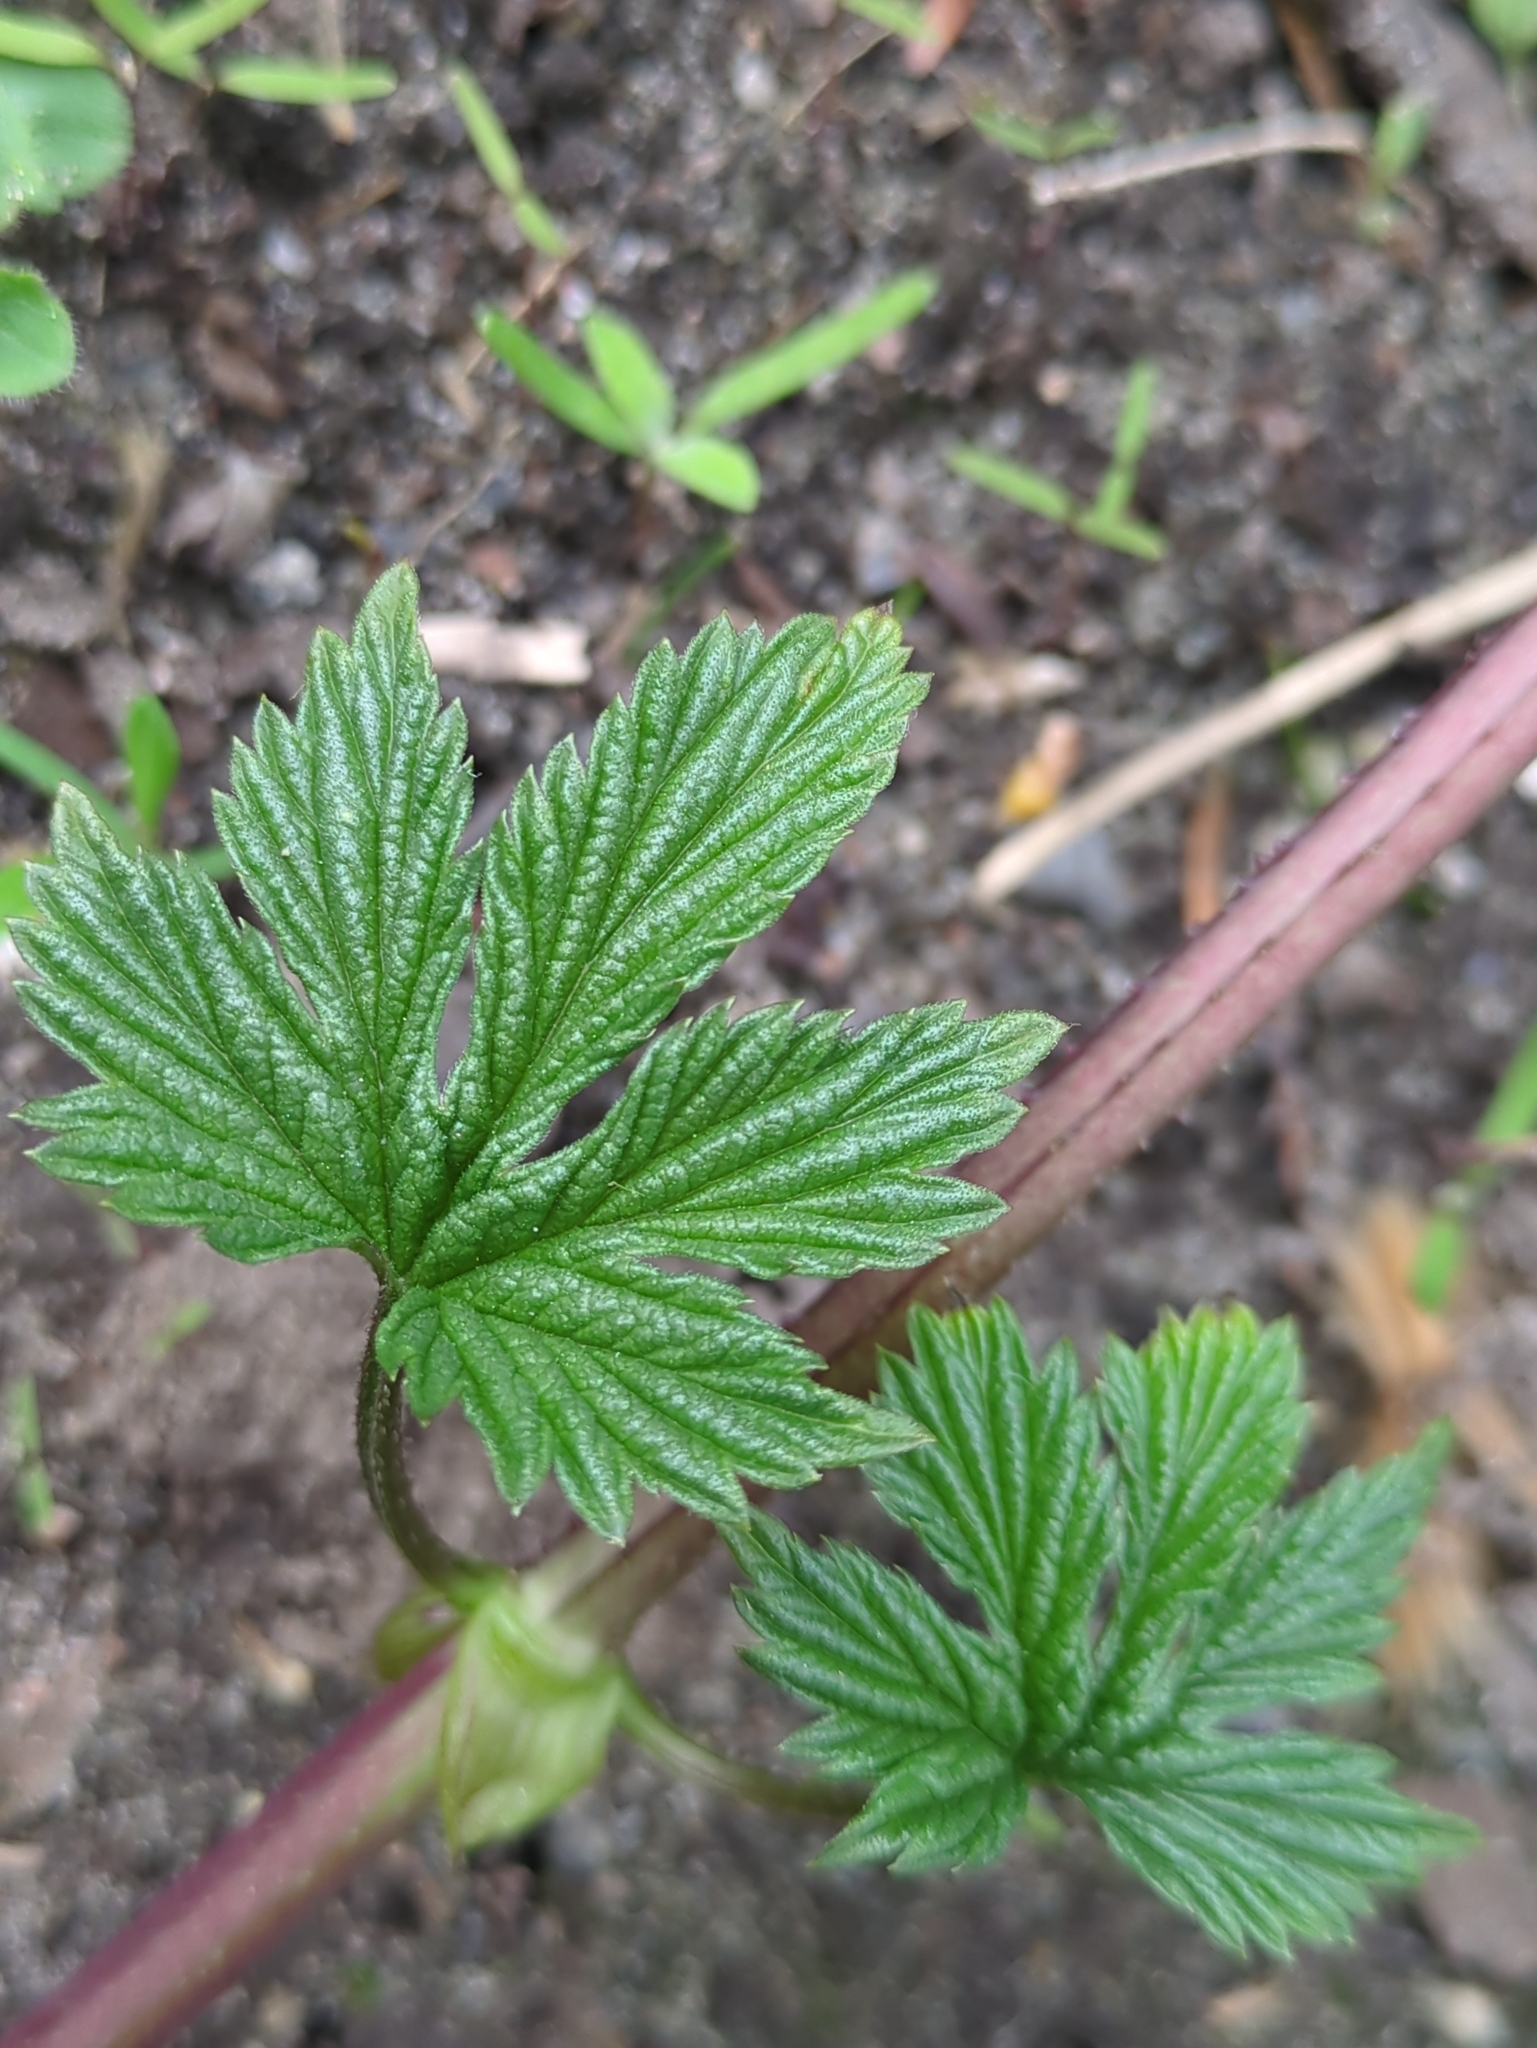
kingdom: Plantae
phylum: Tracheophyta
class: Magnoliopsida
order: Rosales
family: Cannabaceae
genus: Humulus
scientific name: Humulus lupulus
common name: Hop
